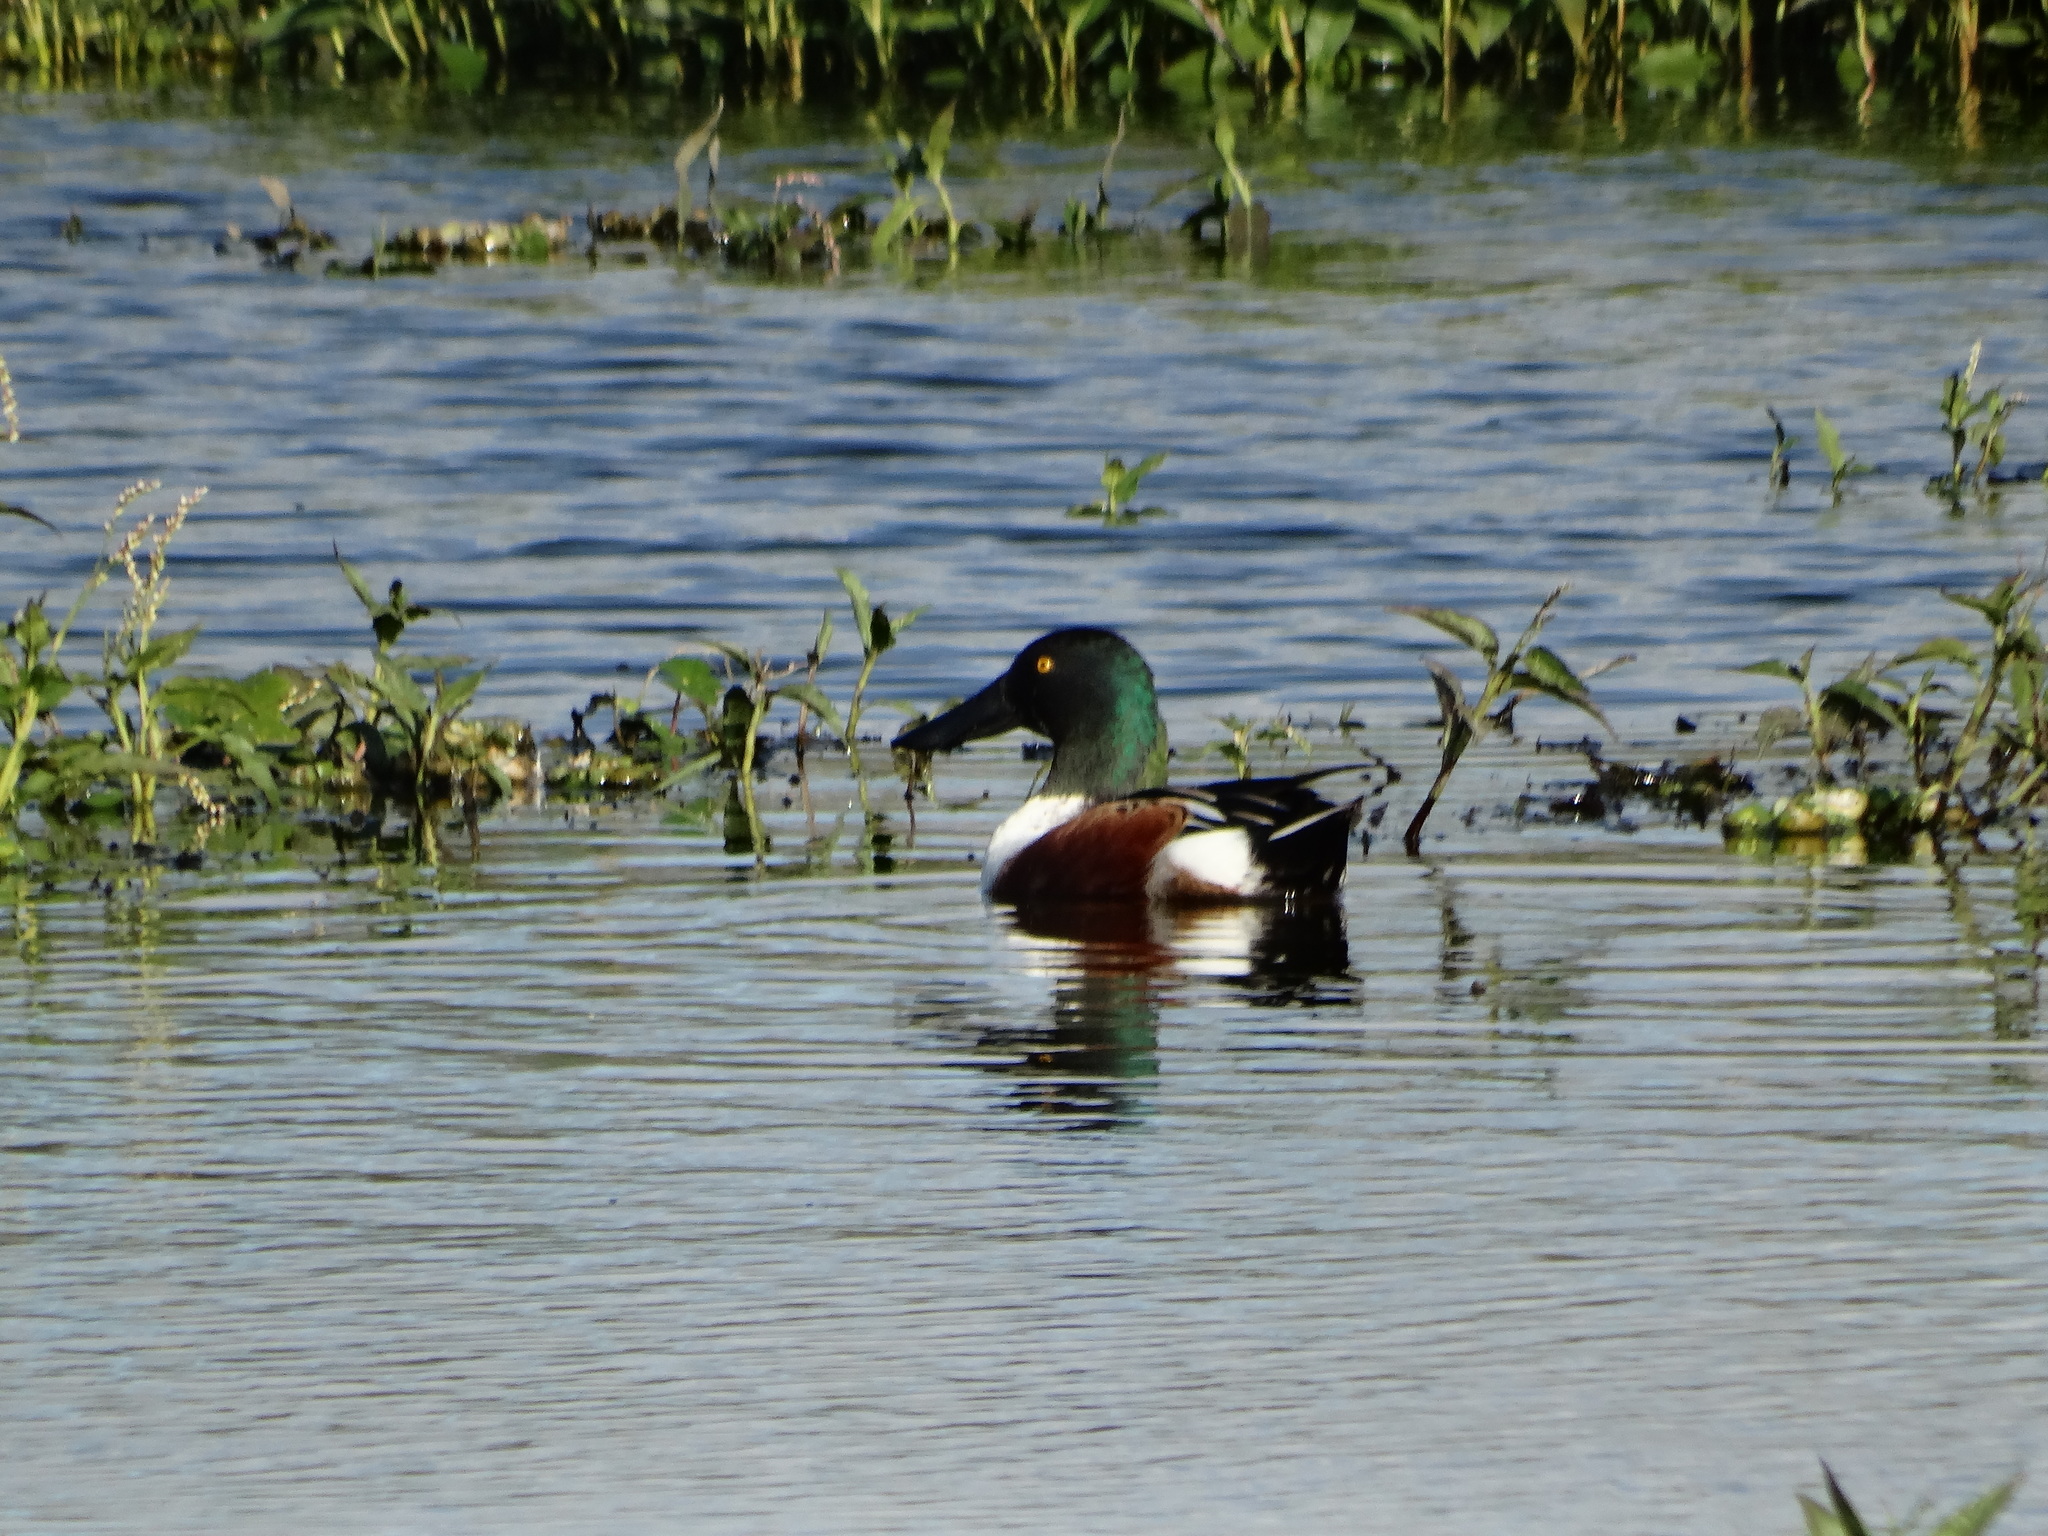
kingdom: Animalia
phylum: Chordata
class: Aves
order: Anseriformes
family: Anatidae
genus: Spatula
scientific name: Spatula clypeata
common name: Northern shoveler
